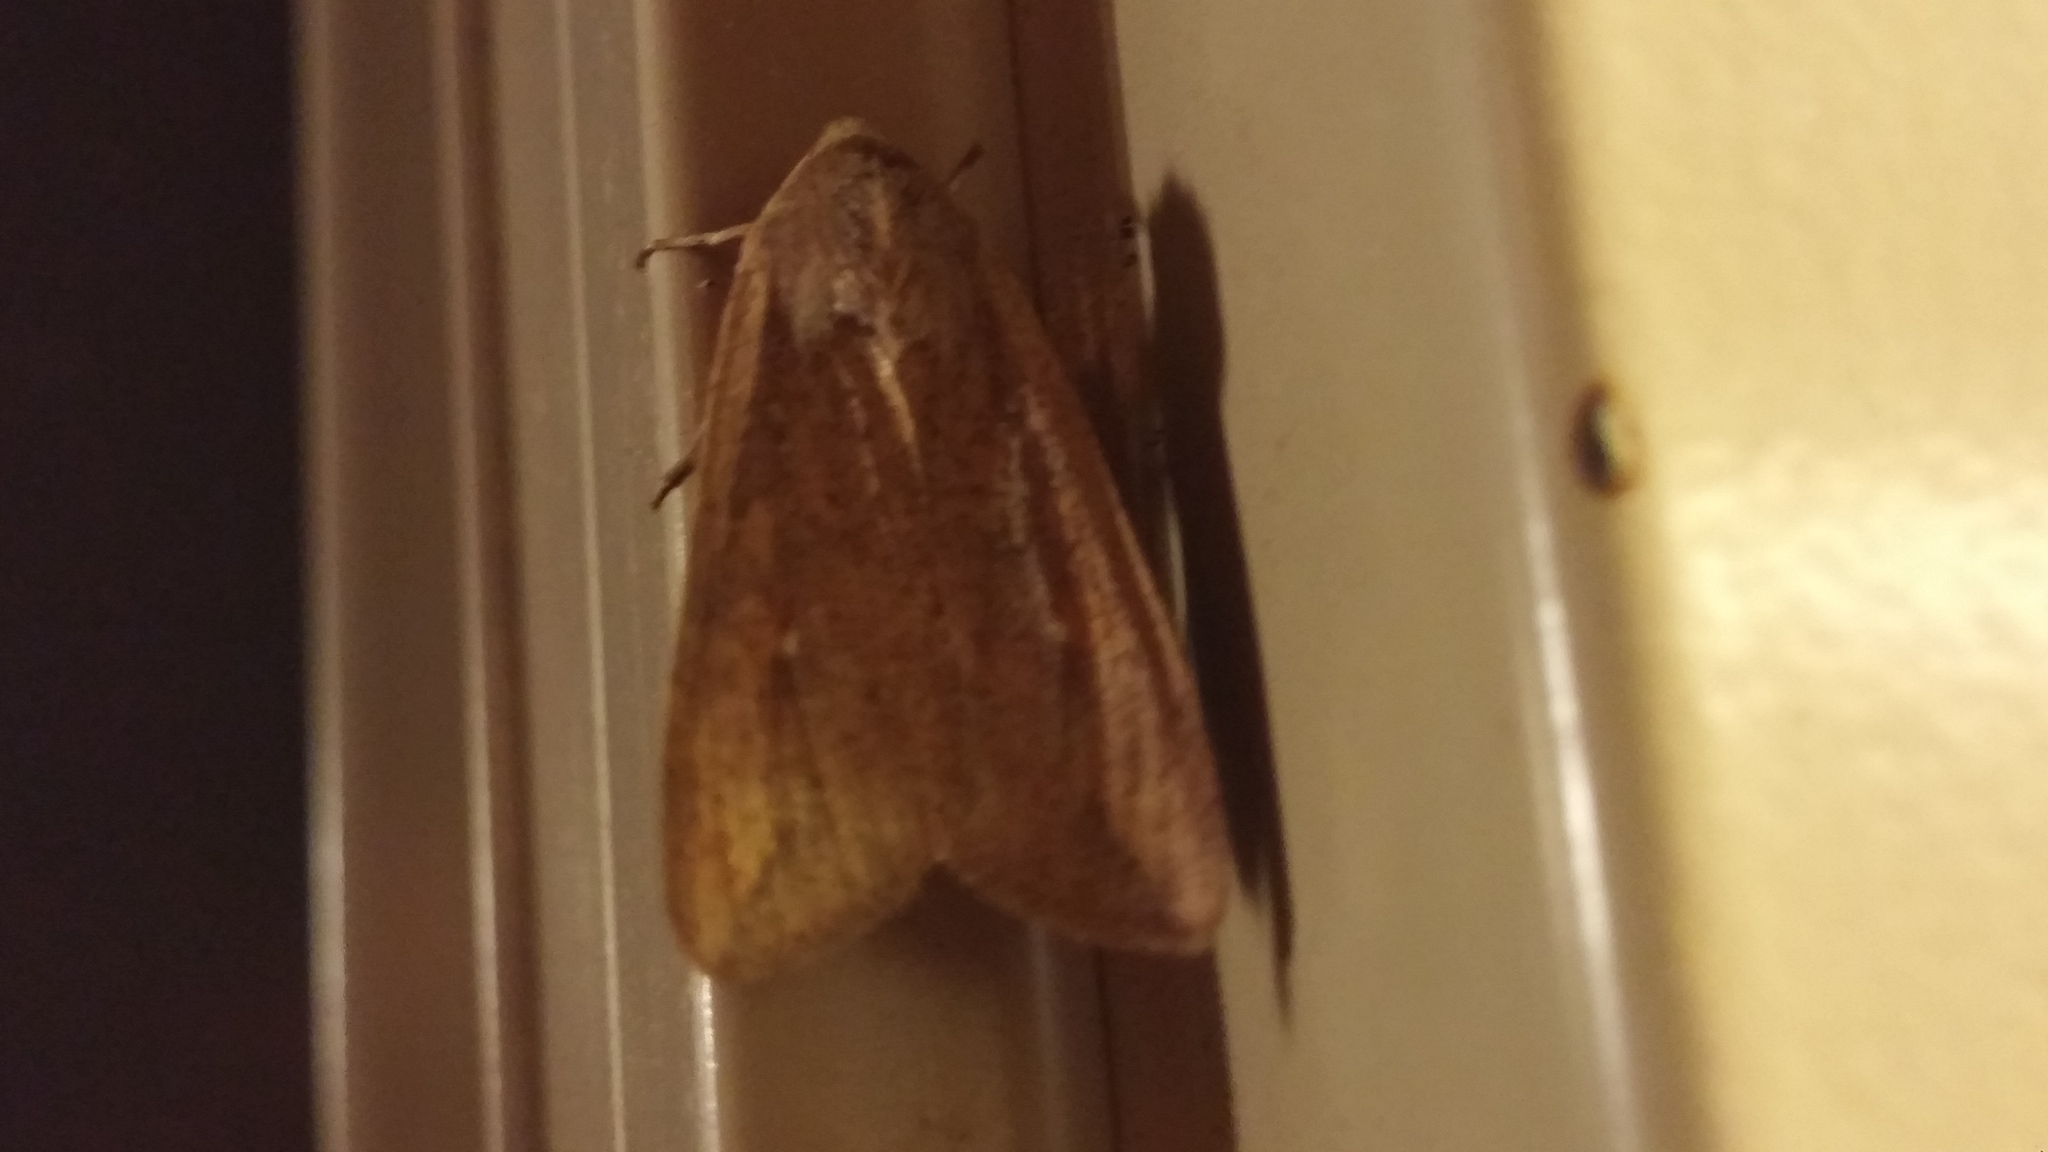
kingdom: Animalia
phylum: Arthropoda
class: Insecta
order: Lepidoptera
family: Noctuidae
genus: Mythimna
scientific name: Mythimna unipuncta
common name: White-speck
